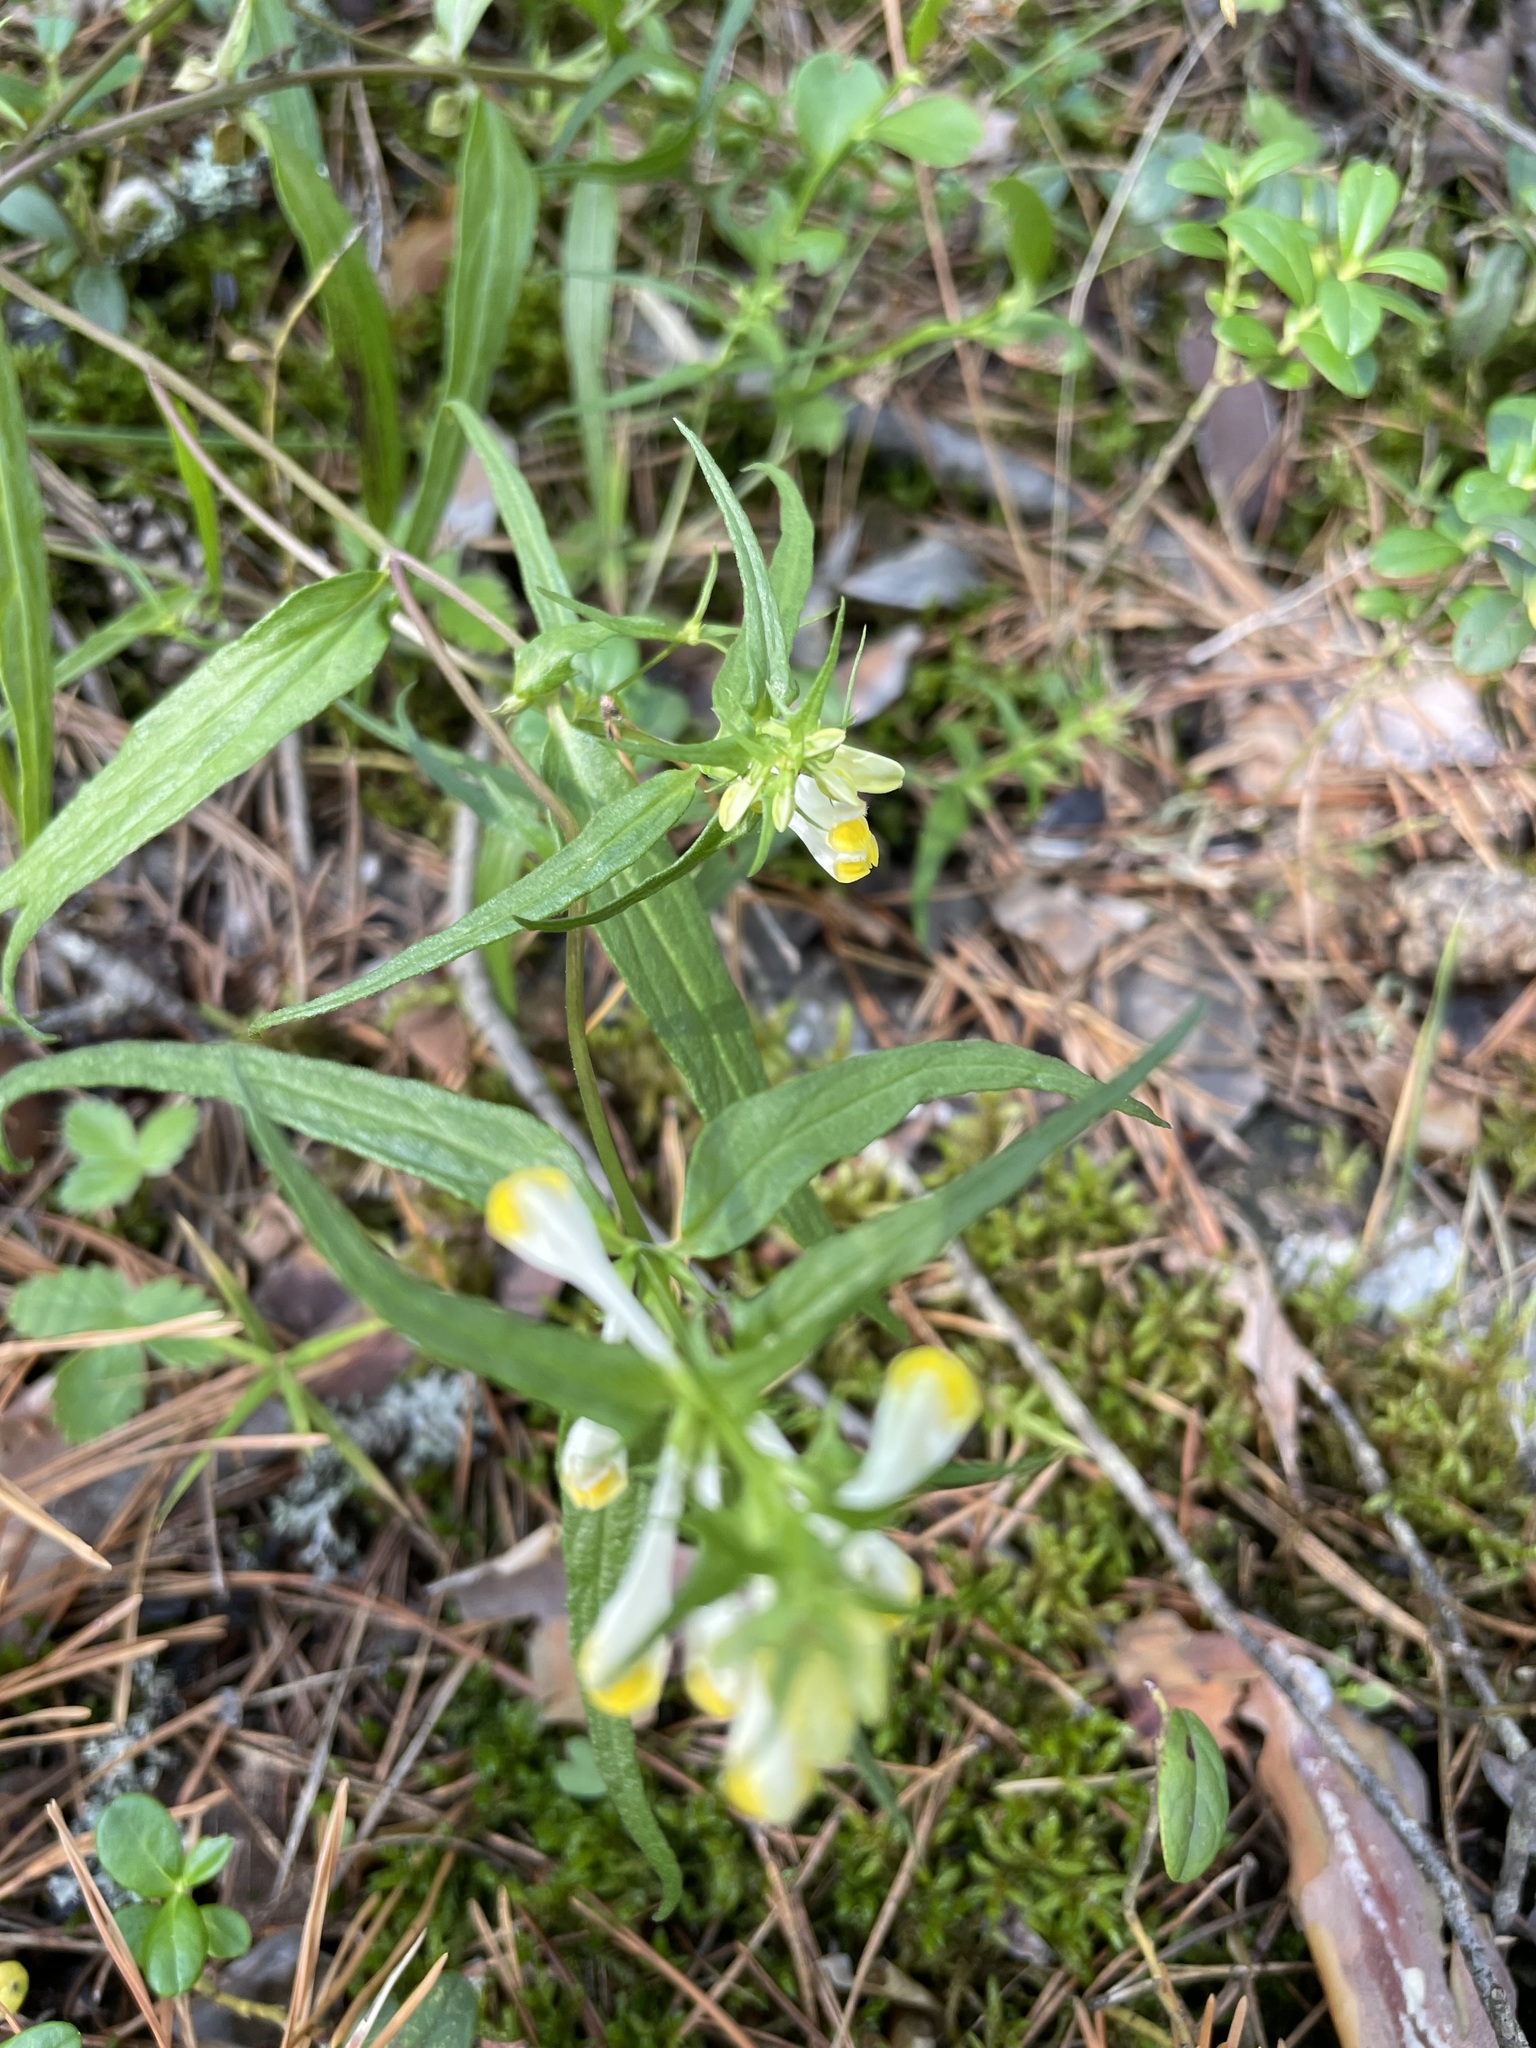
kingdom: Plantae
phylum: Tracheophyta
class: Magnoliopsida
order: Lamiales
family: Orobanchaceae
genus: Melampyrum
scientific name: Melampyrum pratense
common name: Common cow-wheat
